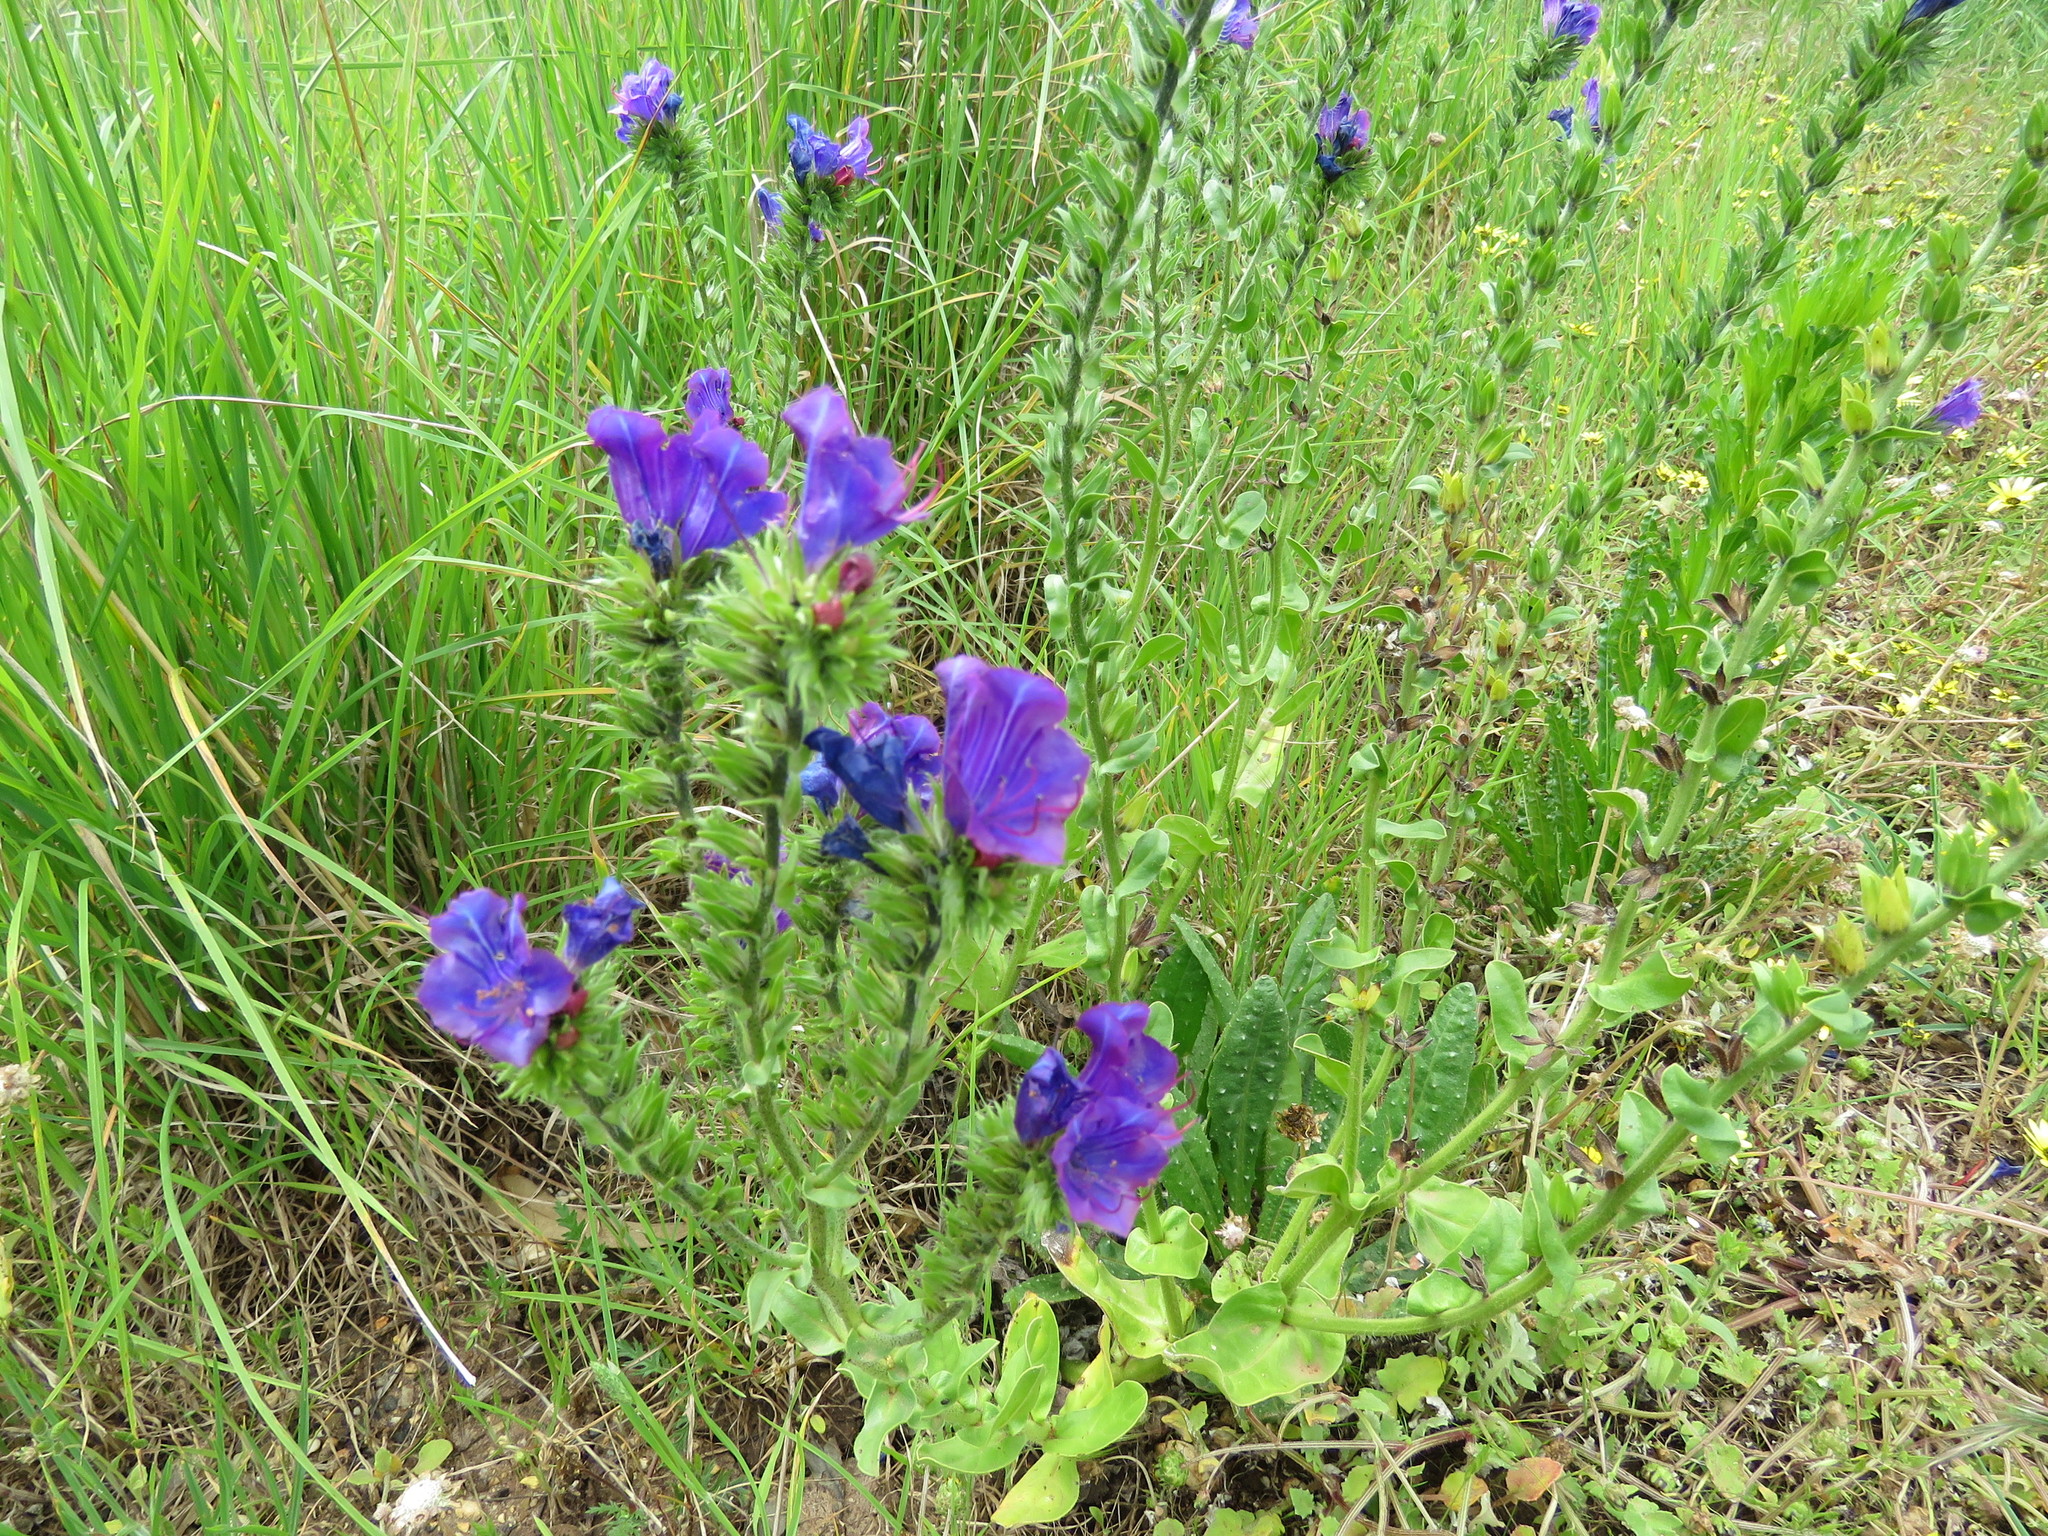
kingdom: Plantae
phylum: Tracheophyta
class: Magnoliopsida
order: Boraginales
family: Boraginaceae
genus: Echium
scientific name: Echium plantagineum
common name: Purple viper's-bugloss
